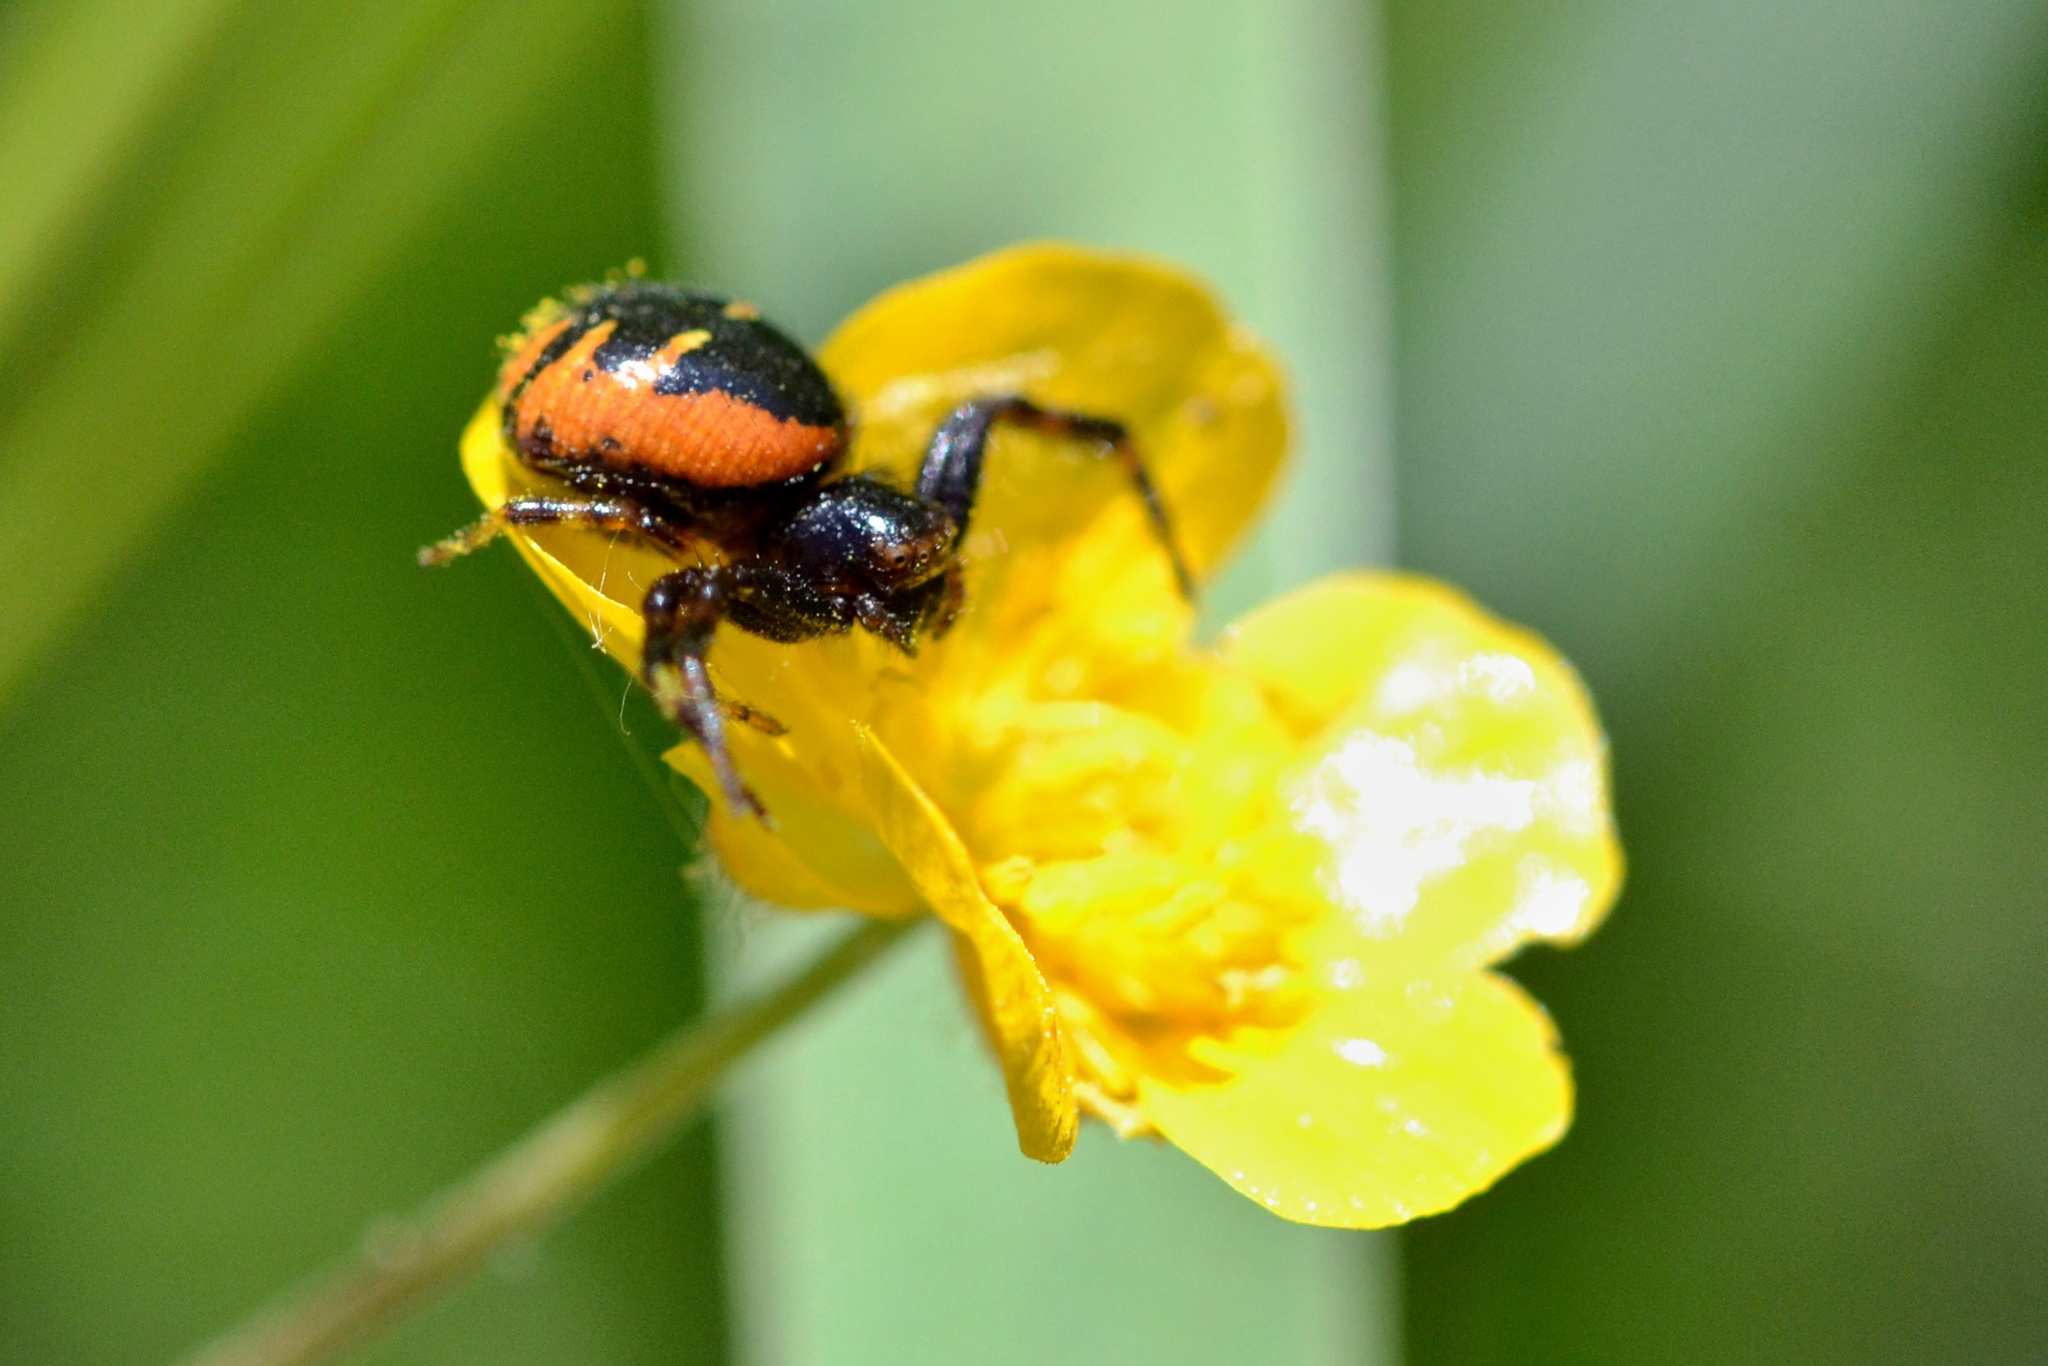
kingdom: Animalia
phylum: Arthropoda
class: Arachnida
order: Araneae
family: Thomisidae
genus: Synema
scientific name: Synema globosum
